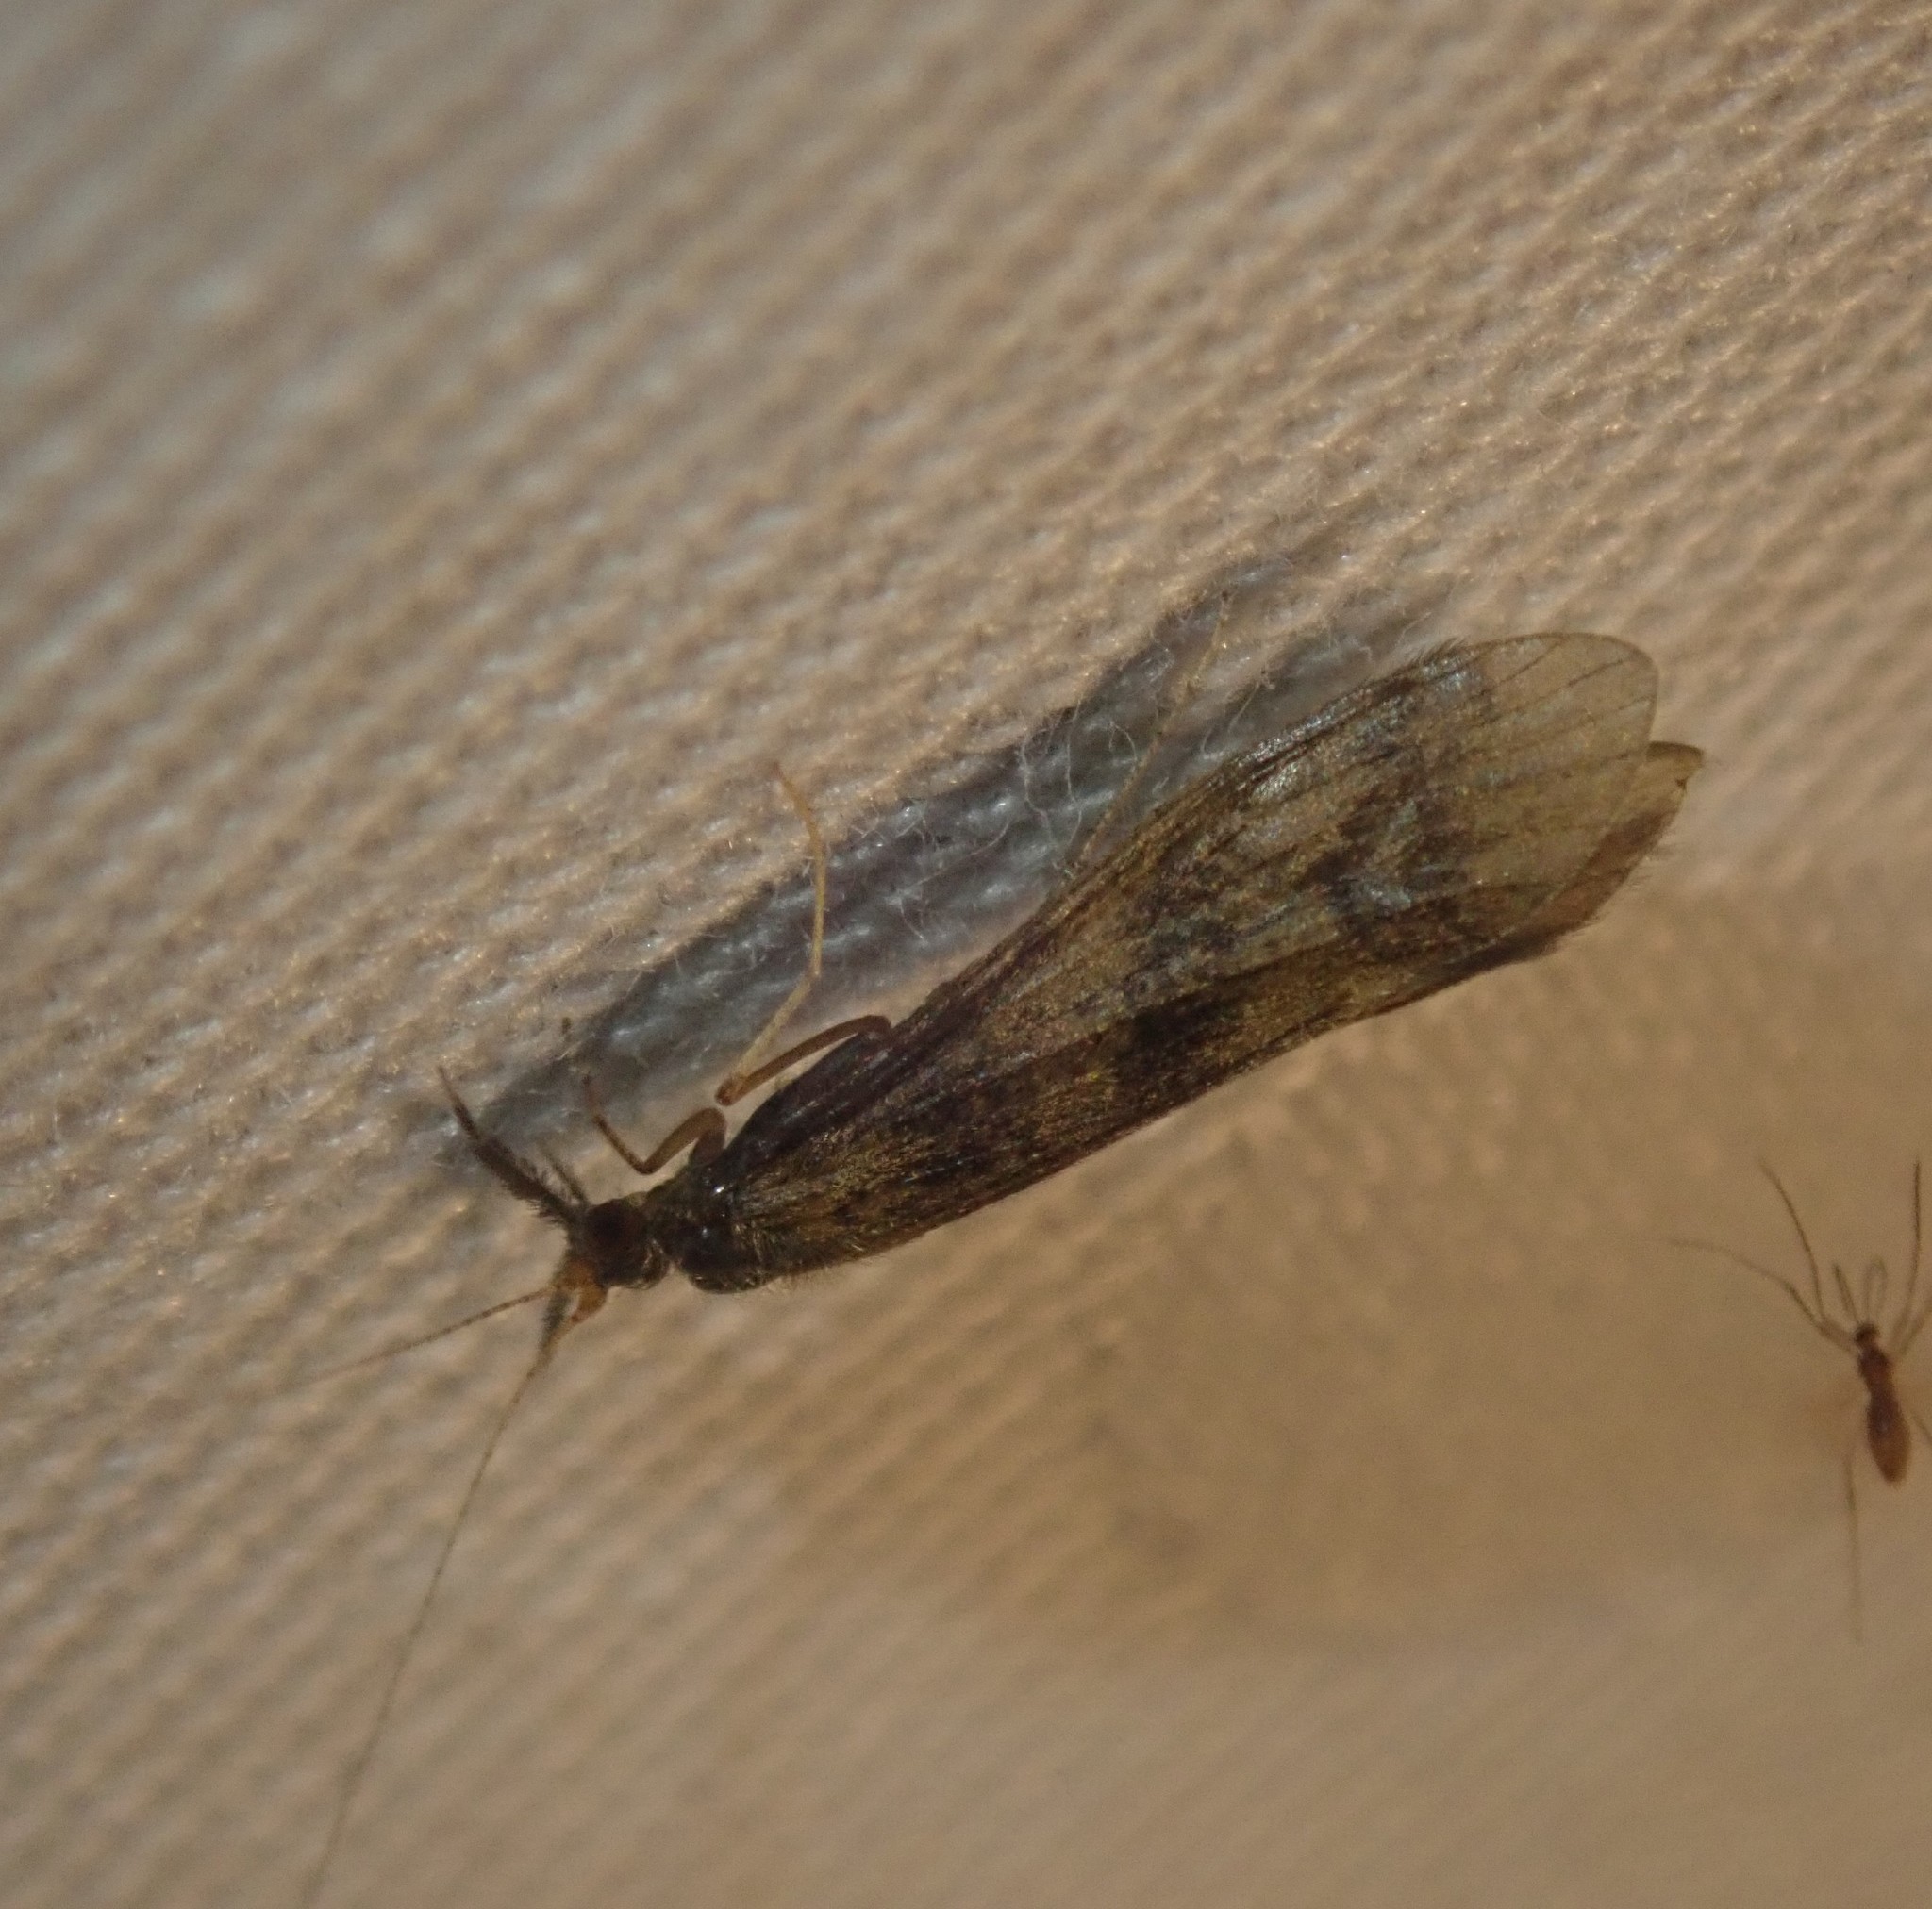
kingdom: Animalia
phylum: Arthropoda
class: Insecta
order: Trichoptera
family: Leptoceridae
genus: Mystacides
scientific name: Mystacides longicornis
